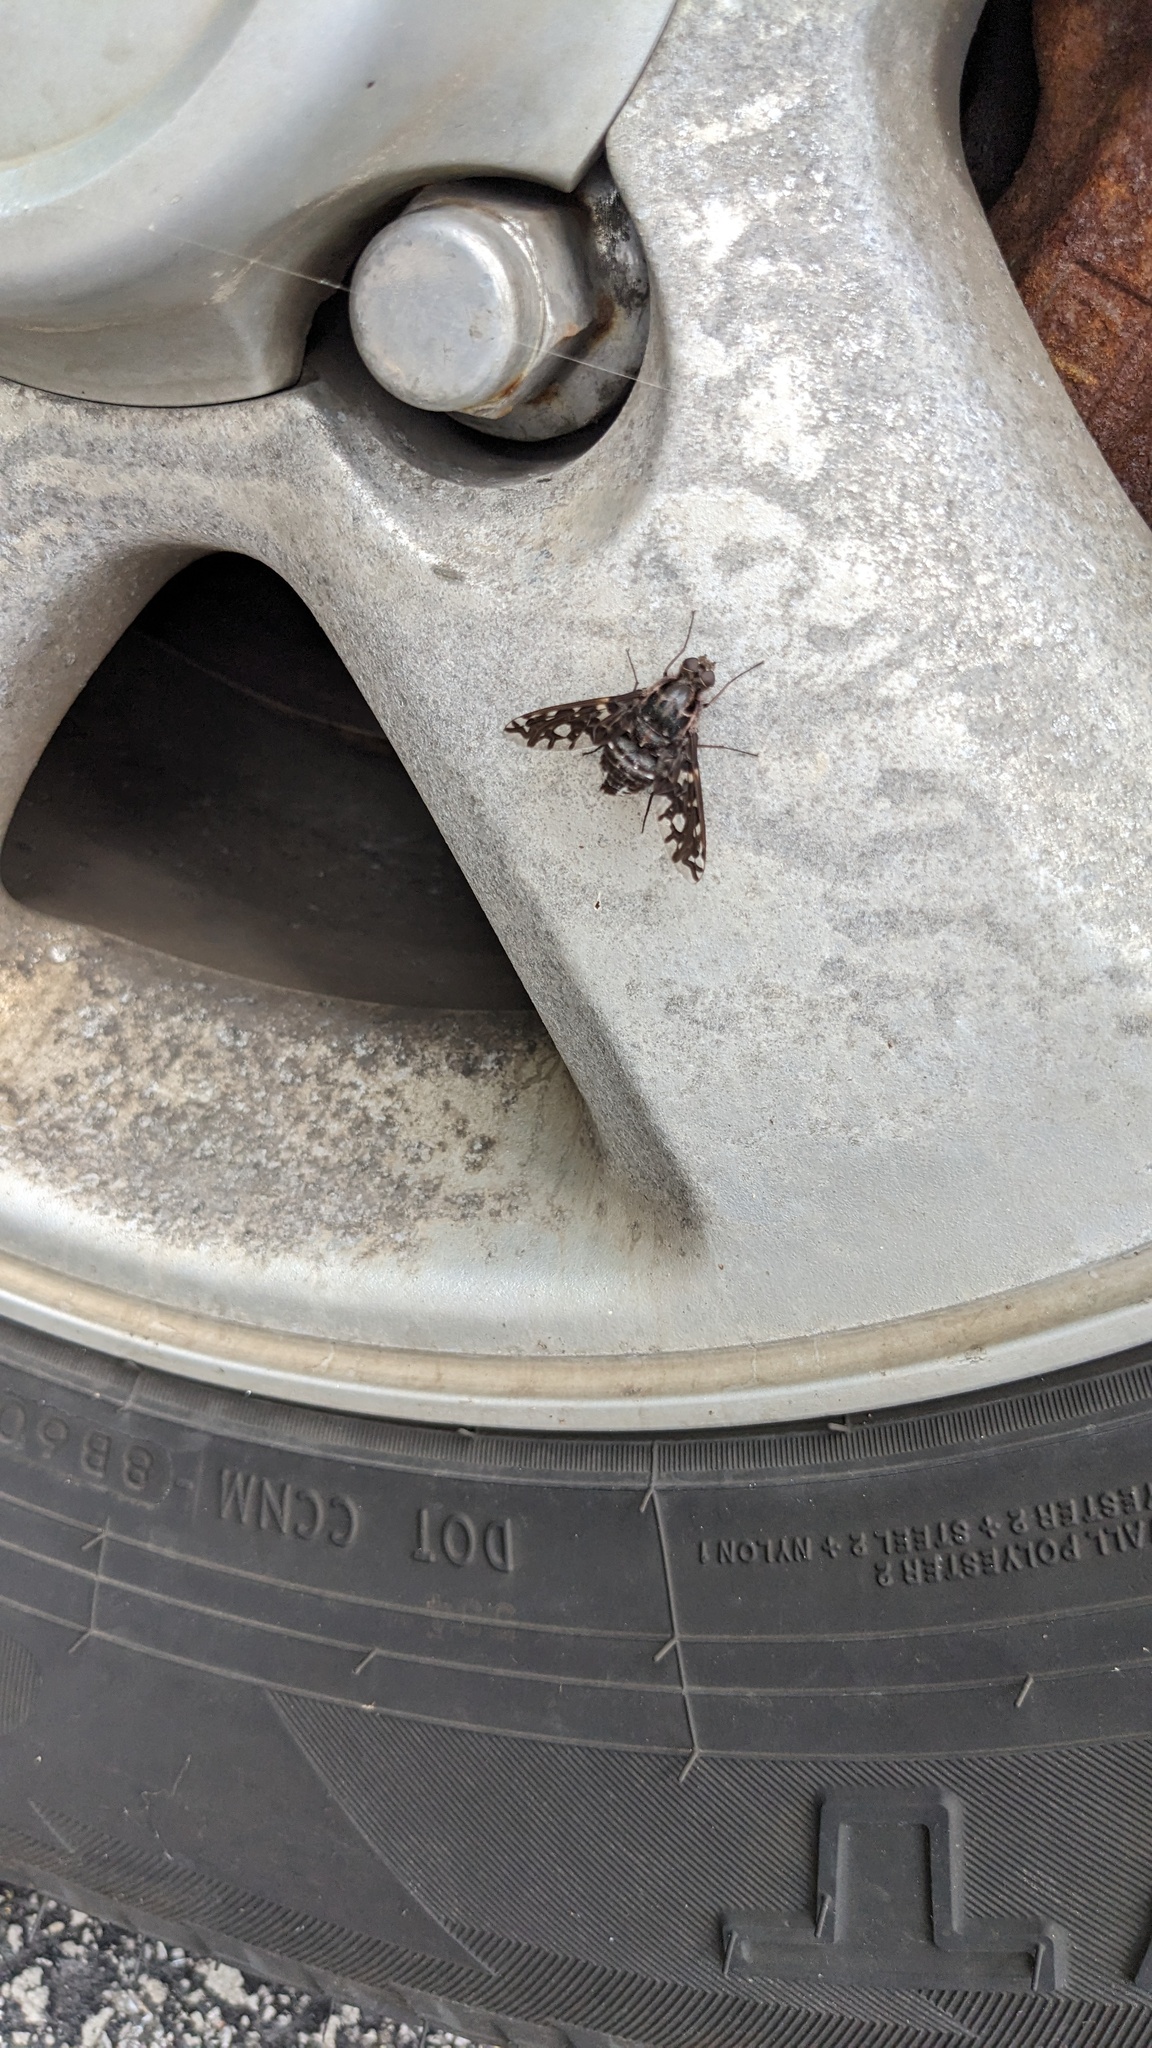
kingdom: Animalia
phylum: Arthropoda
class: Insecta
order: Diptera
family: Bombyliidae
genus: Xenox
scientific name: Xenox tigrinus
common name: Tiger bee fly
